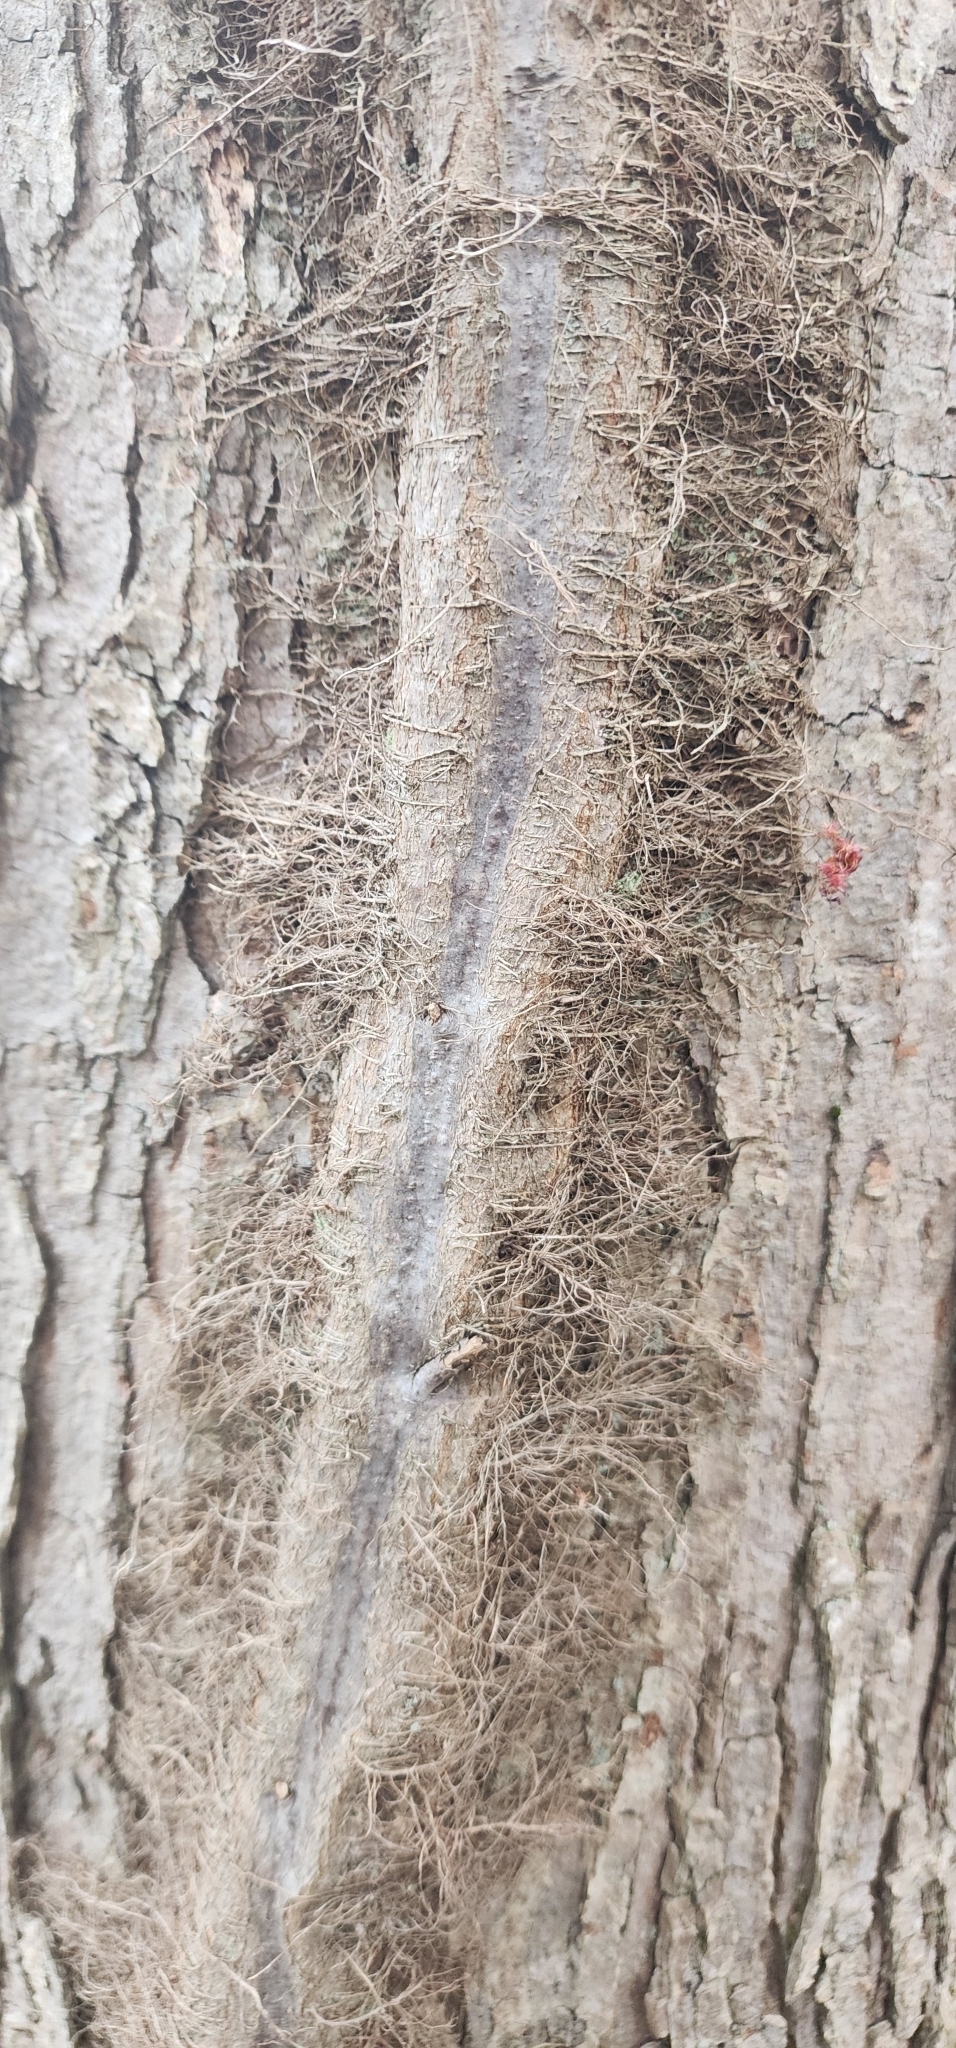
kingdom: Plantae
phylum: Tracheophyta
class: Magnoliopsida
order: Sapindales
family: Anacardiaceae
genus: Toxicodendron
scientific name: Toxicodendron radicans
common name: Poison ivy
